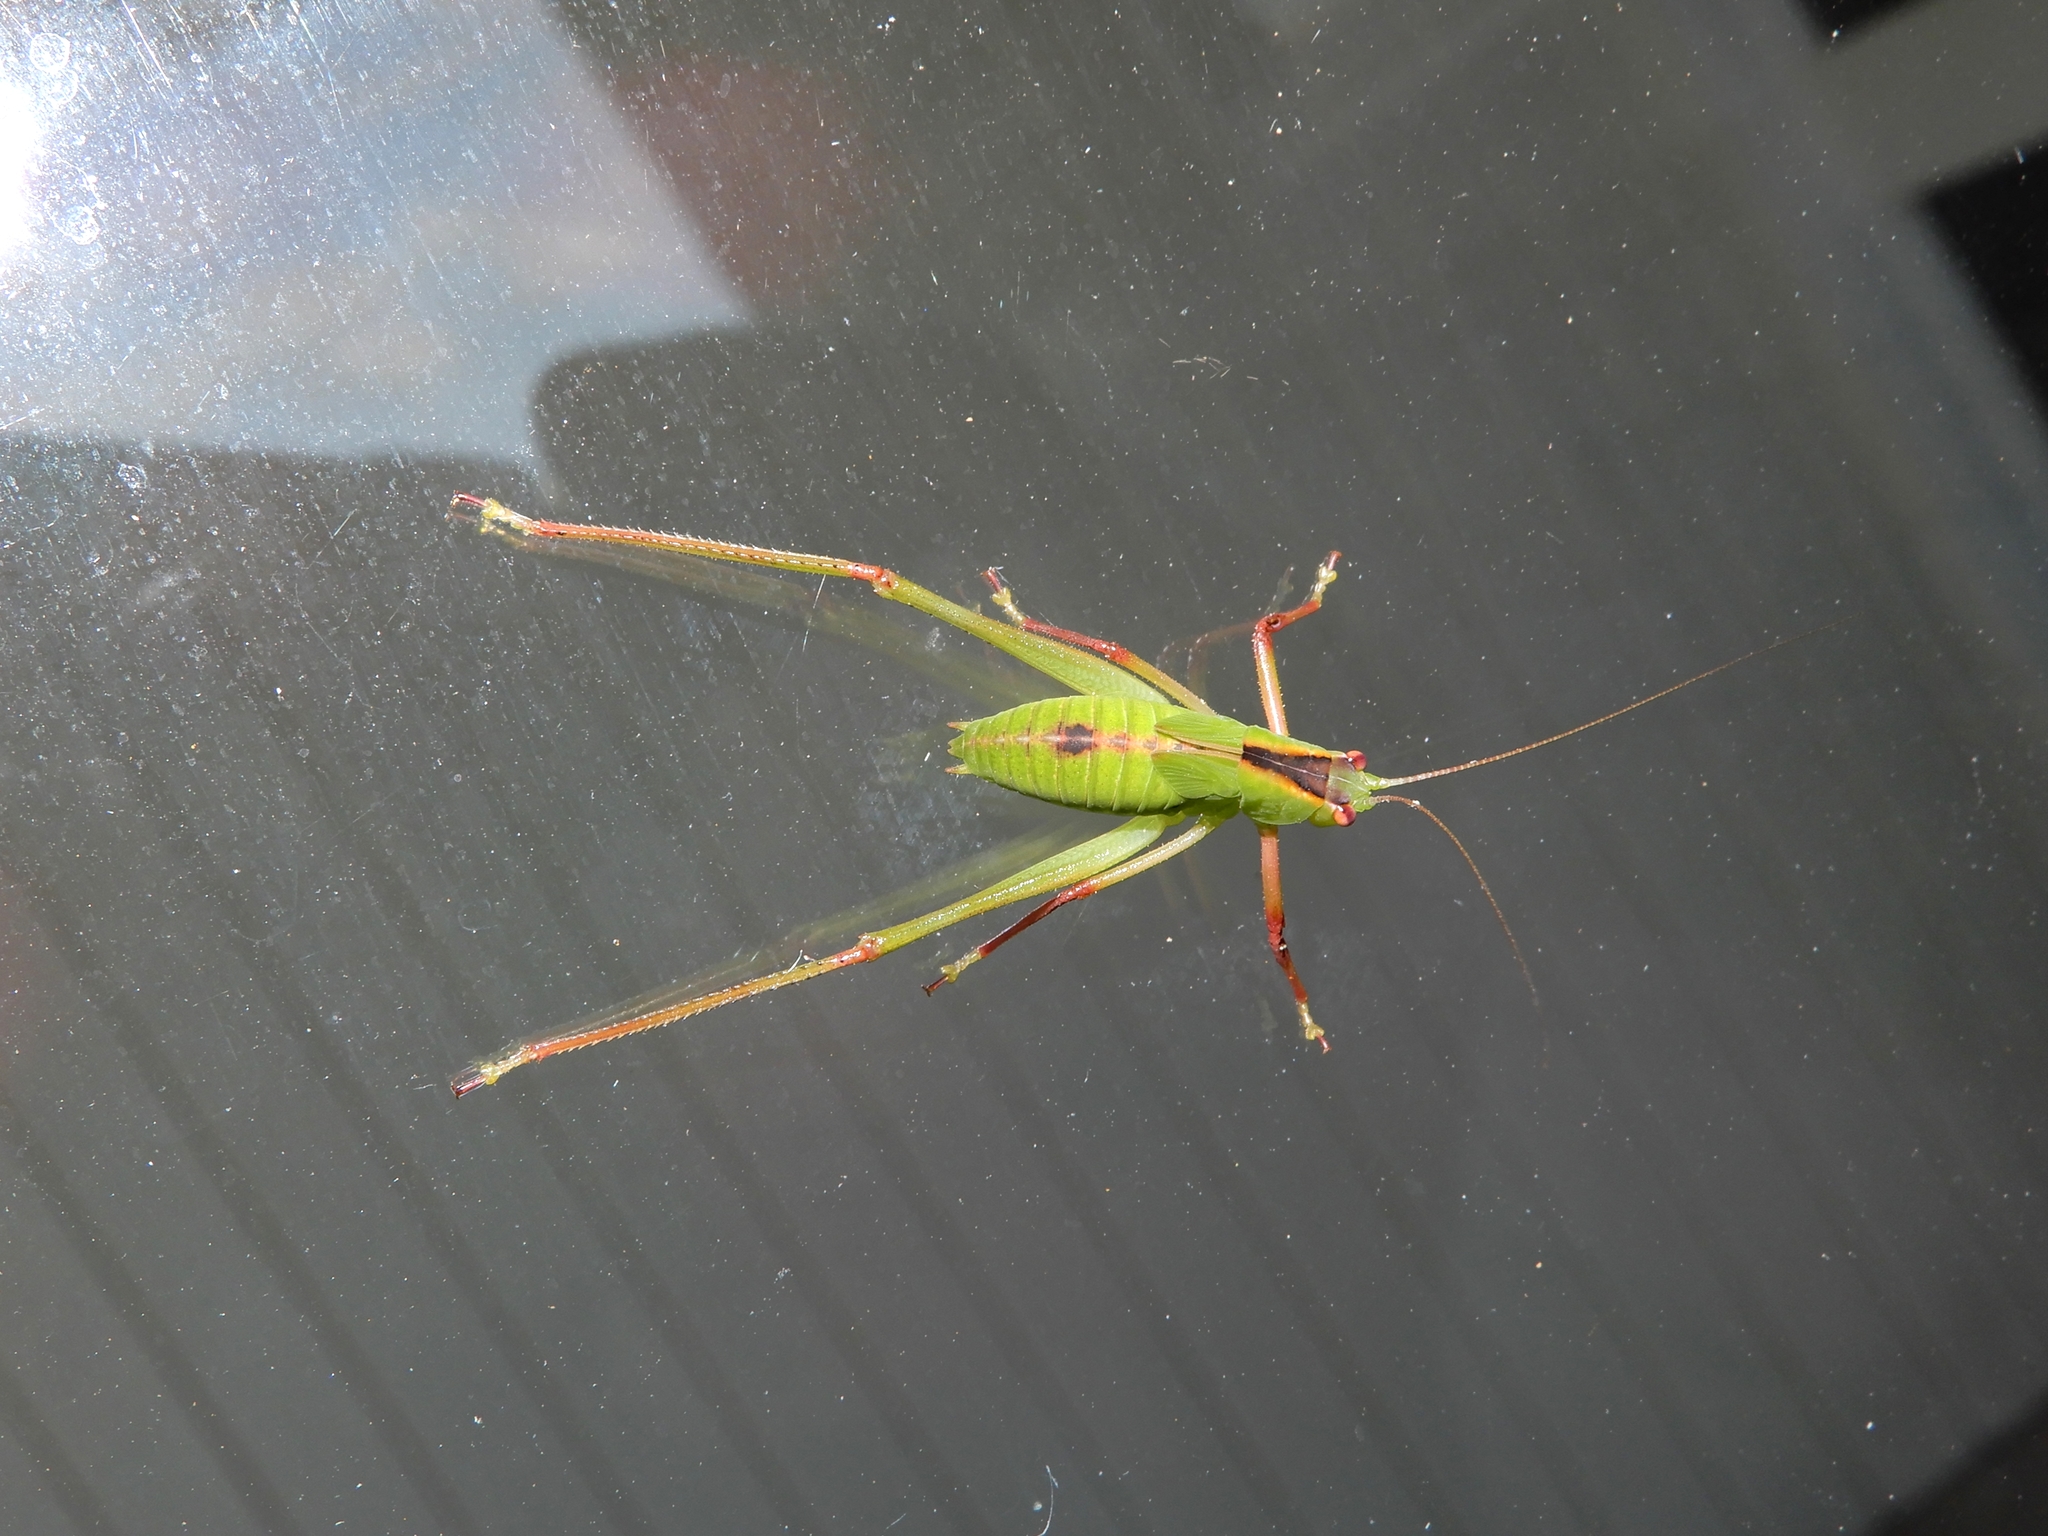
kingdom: Animalia
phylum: Arthropoda
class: Insecta
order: Orthoptera
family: Tettigoniidae
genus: Caedicia
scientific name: Caedicia simplex
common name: Common garden katydid
